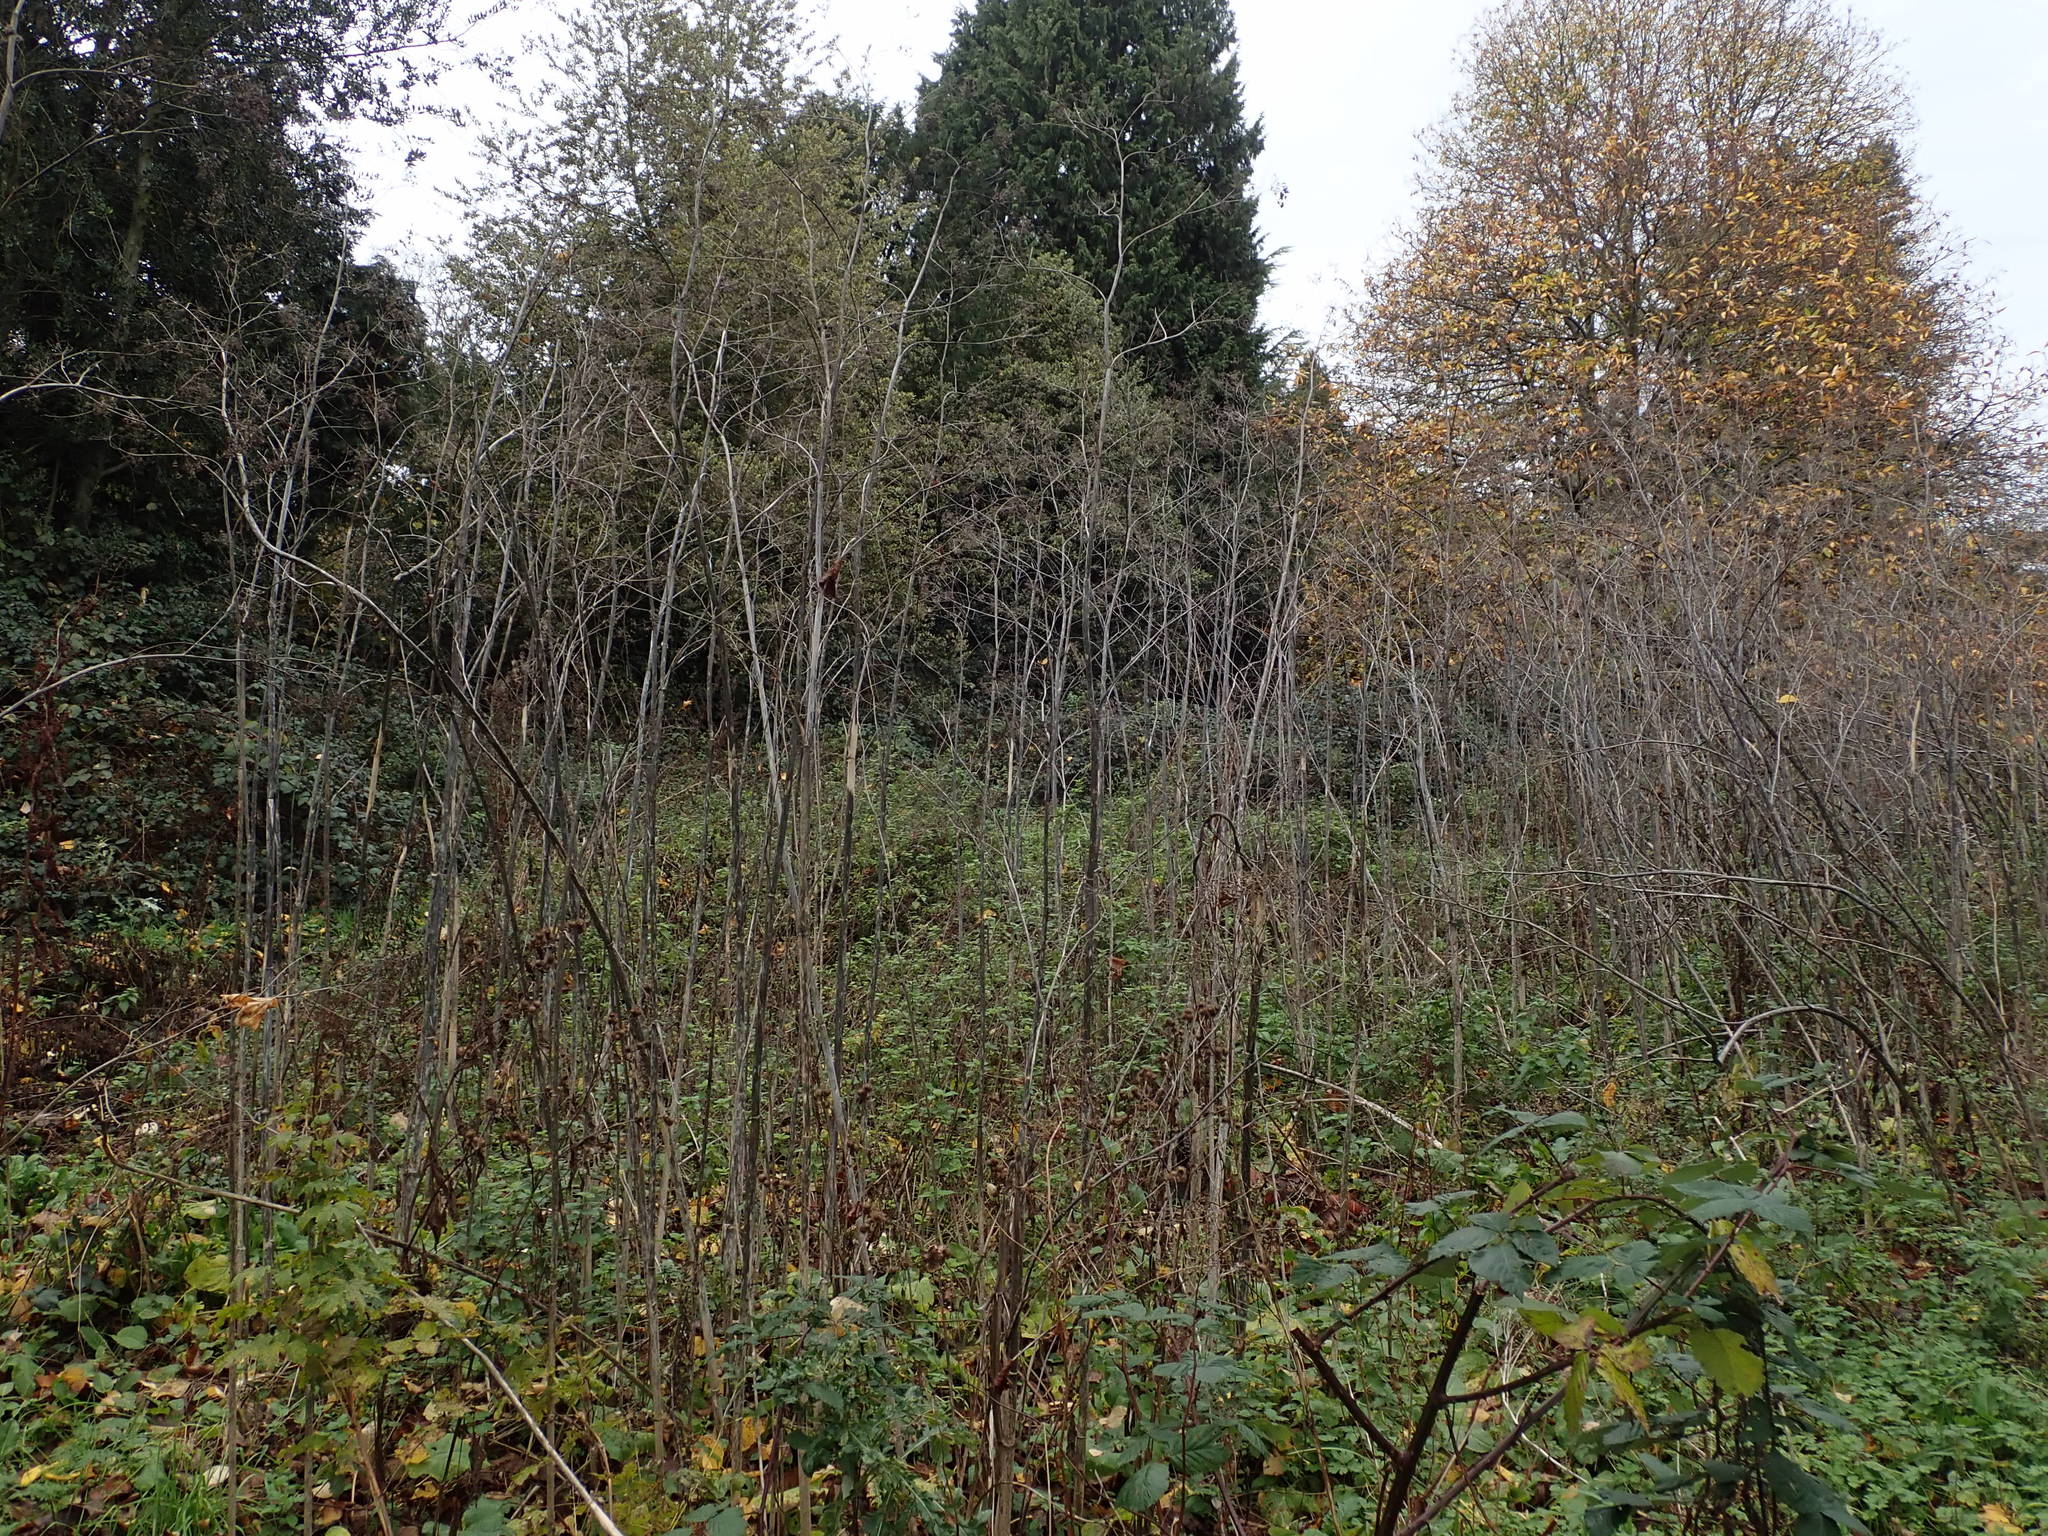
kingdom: Plantae
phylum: Tracheophyta
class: Magnoliopsida
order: Apiales
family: Apiaceae
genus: Conium
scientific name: Conium maculatum
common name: Hemlock
